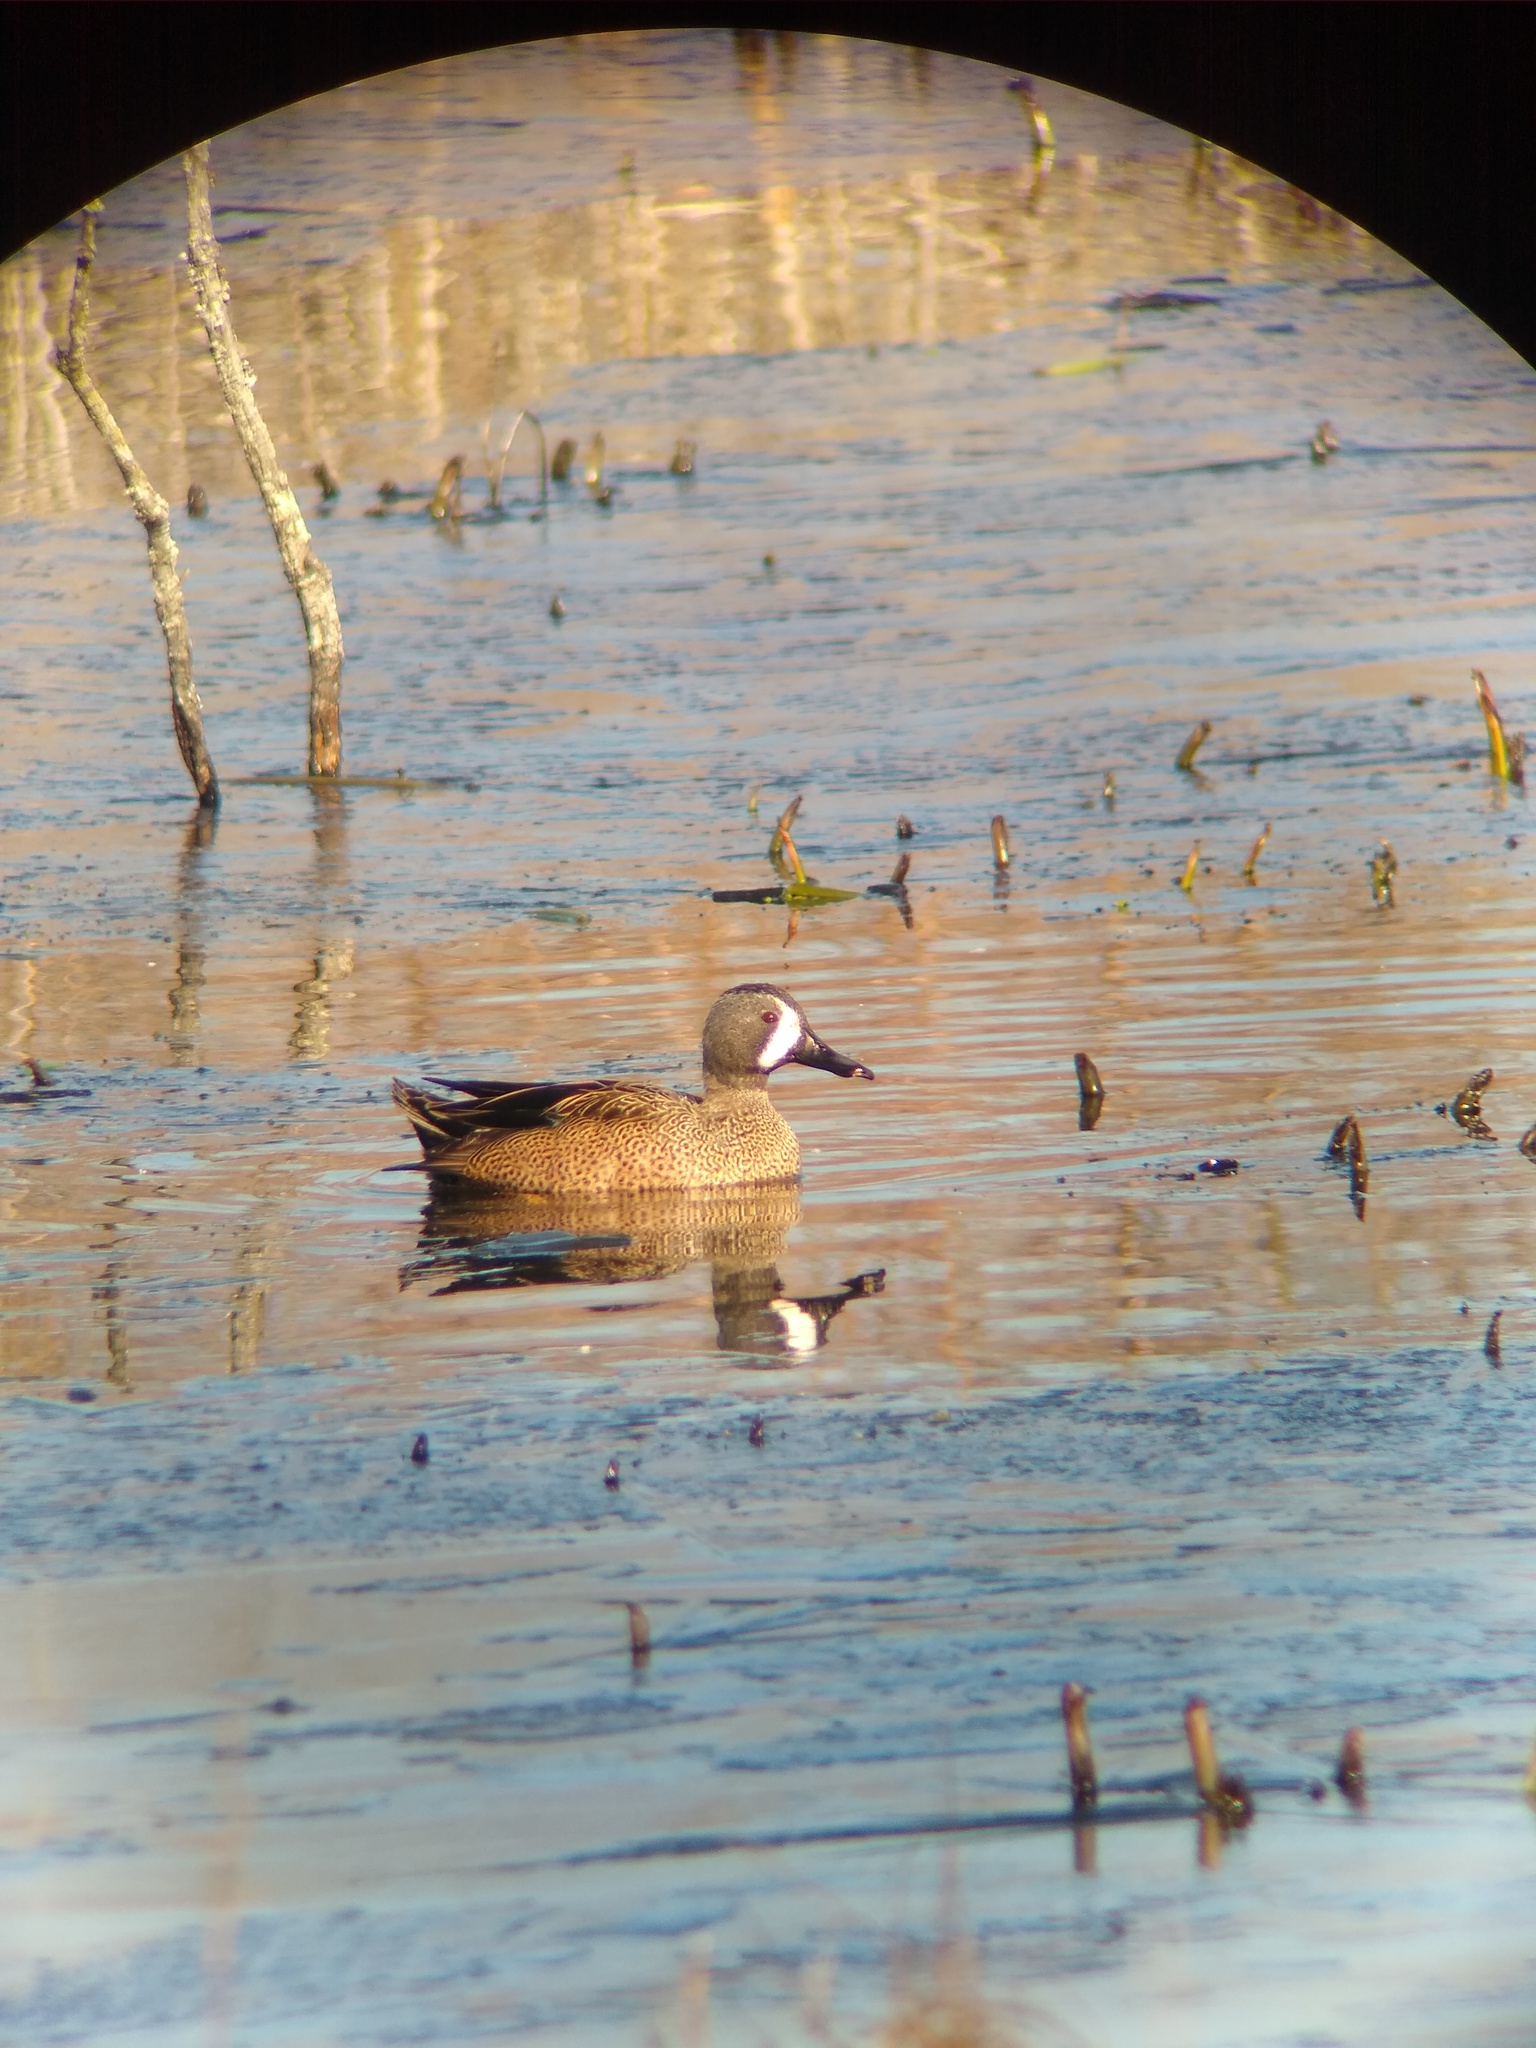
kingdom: Animalia
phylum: Chordata
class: Aves
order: Anseriformes
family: Anatidae
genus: Spatula
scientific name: Spatula discors
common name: Blue-winged teal
